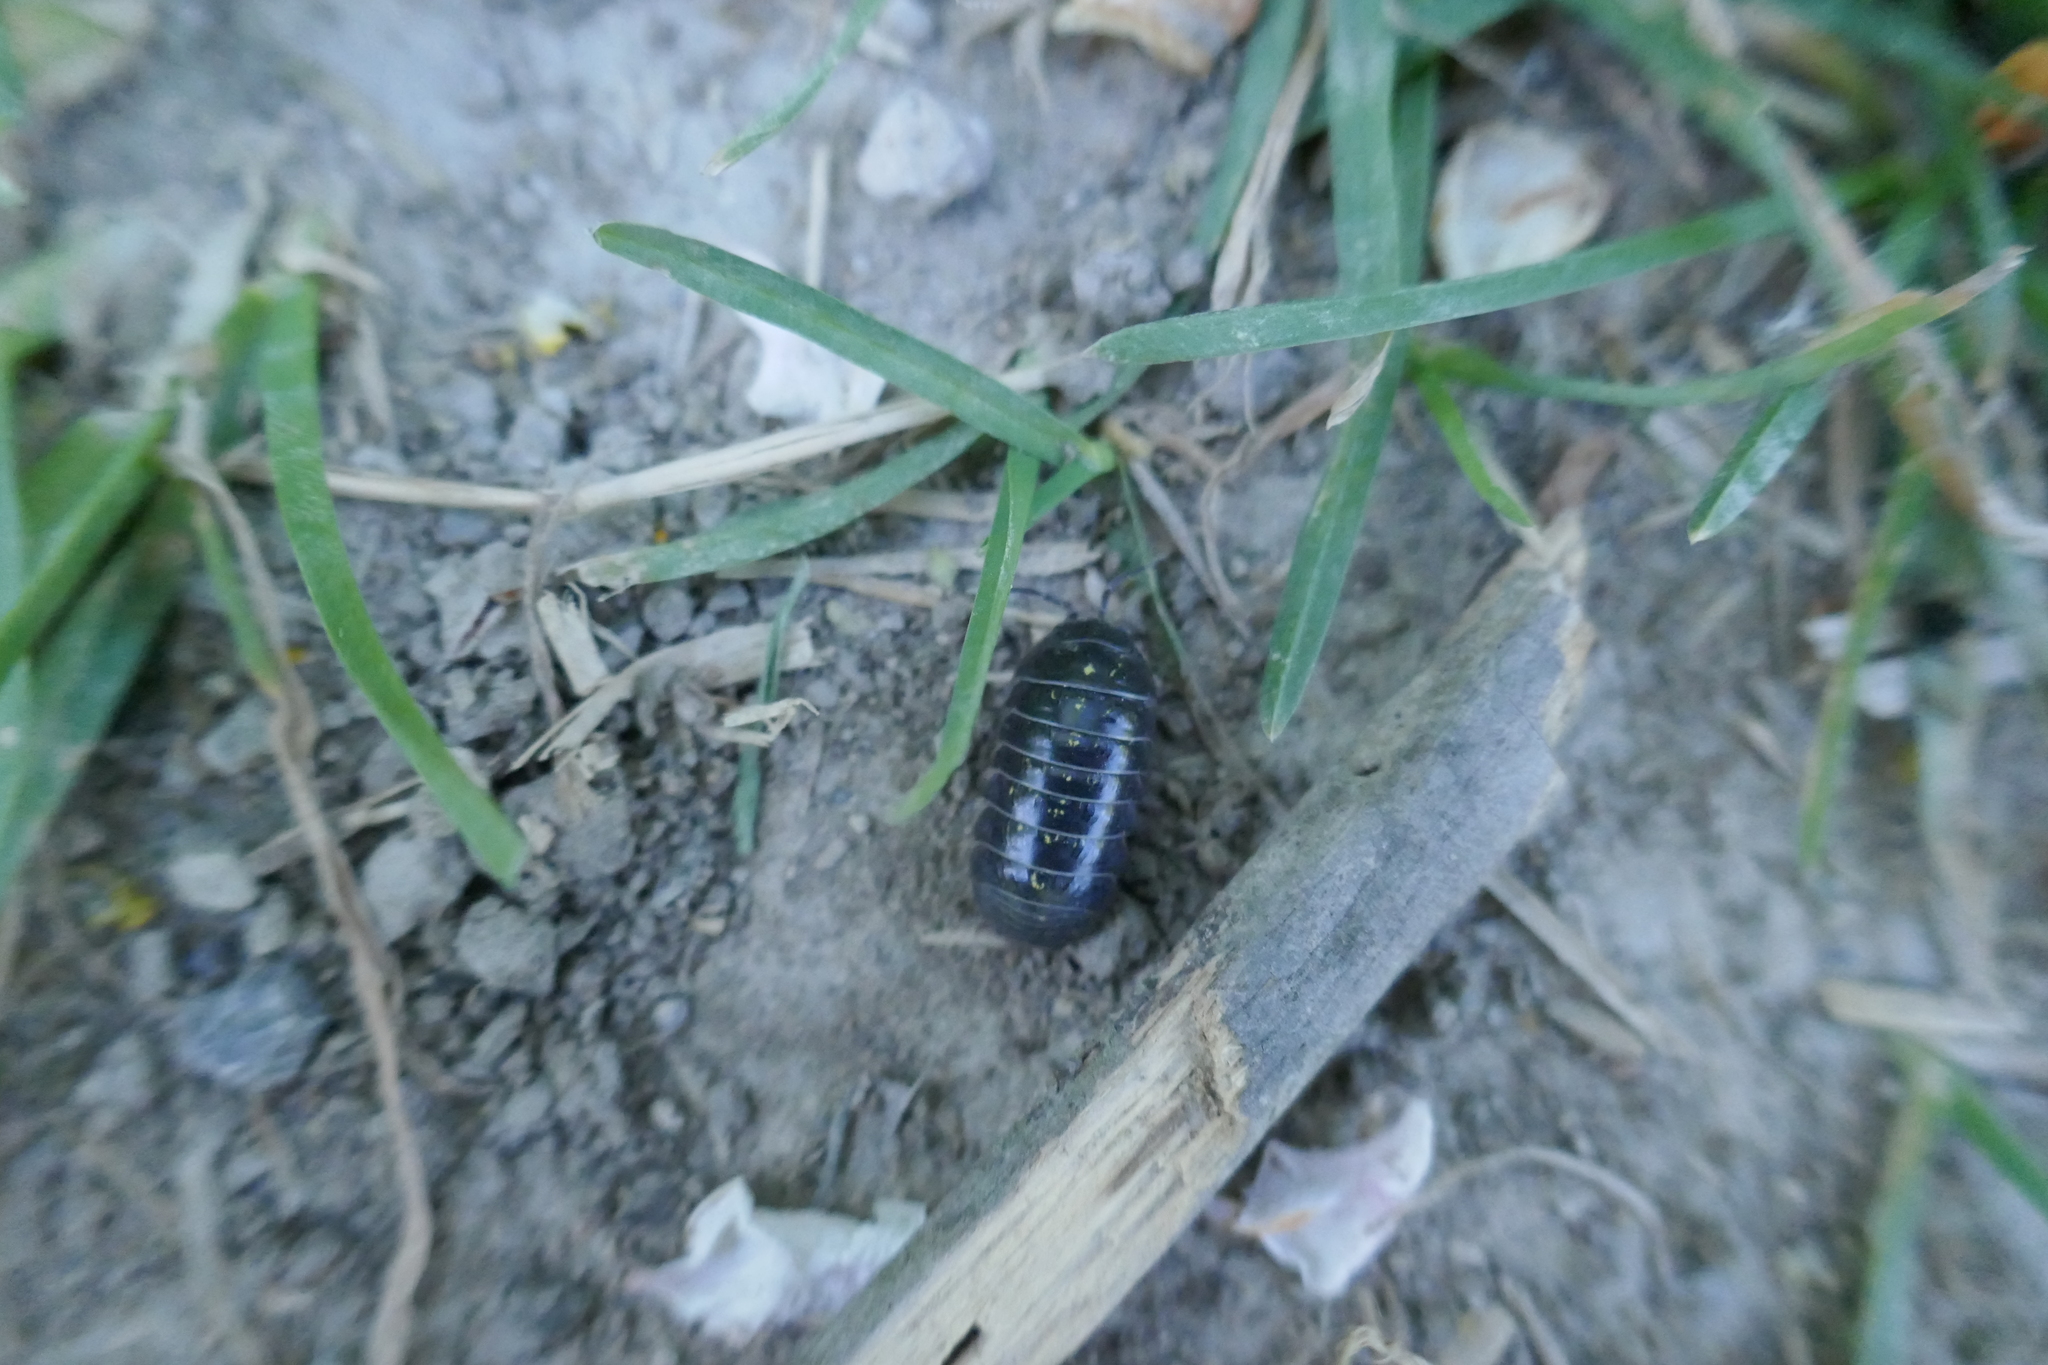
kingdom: Animalia
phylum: Arthropoda
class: Malacostraca
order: Isopoda
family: Armadillidiidae
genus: Armadillidium
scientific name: Armadillidium vulgare
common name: Common pill woodlouse
